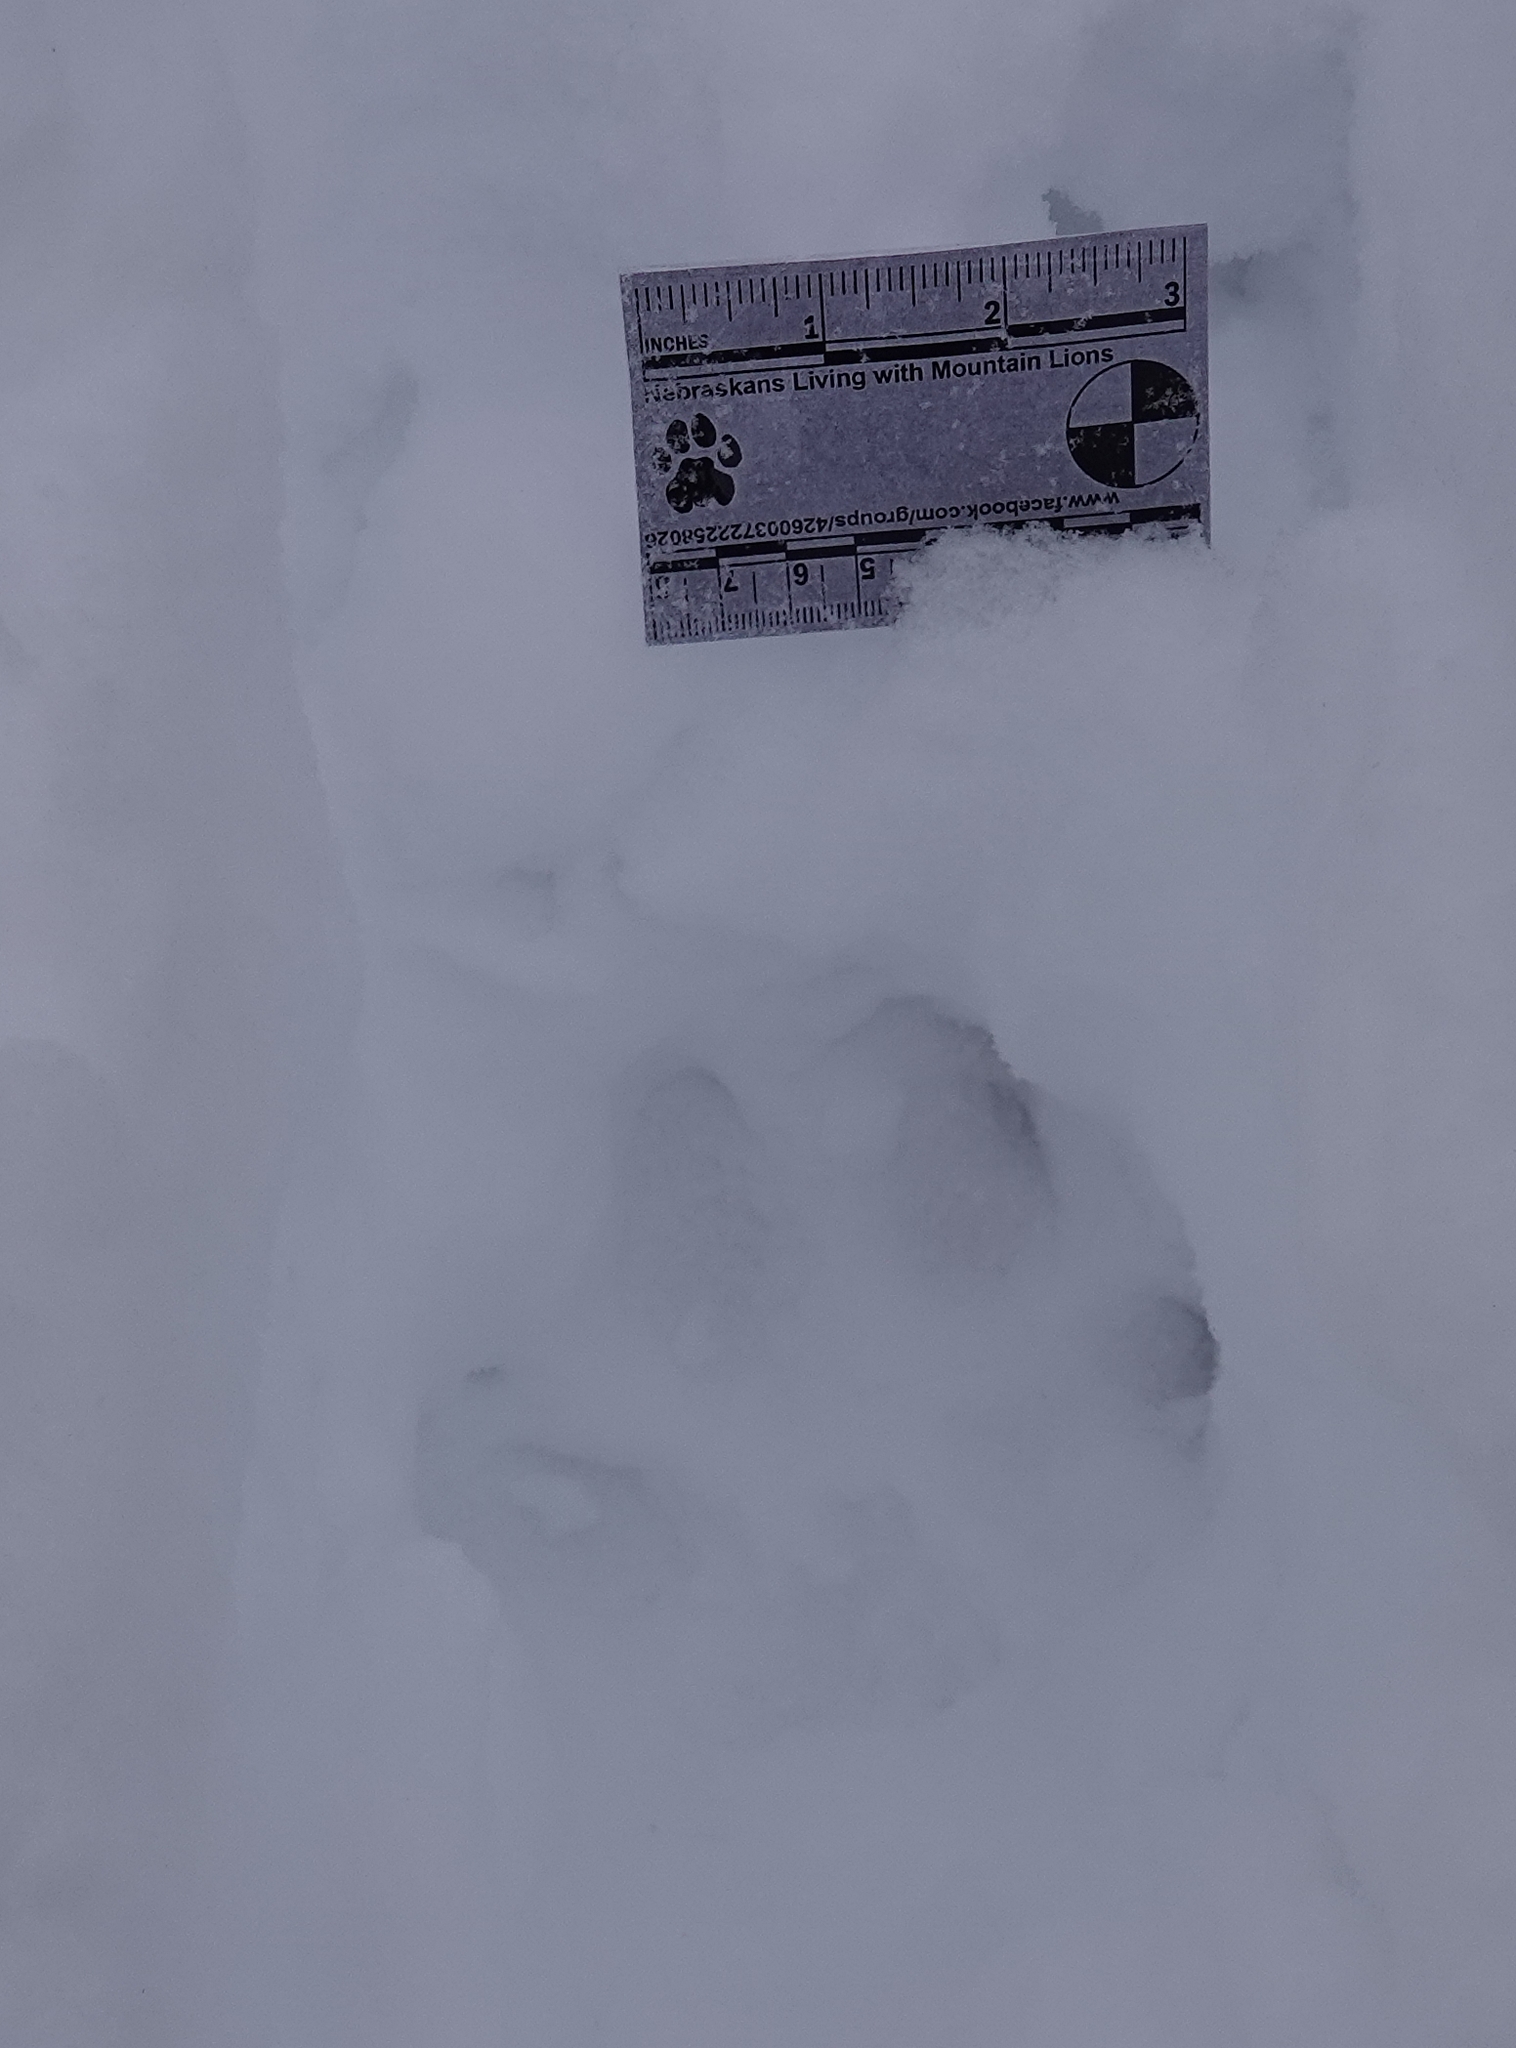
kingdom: Animalia
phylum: Chordata
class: Mammalia
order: Carnivora
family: Felidae
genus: Puma
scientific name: Puma concolor
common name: Puma
